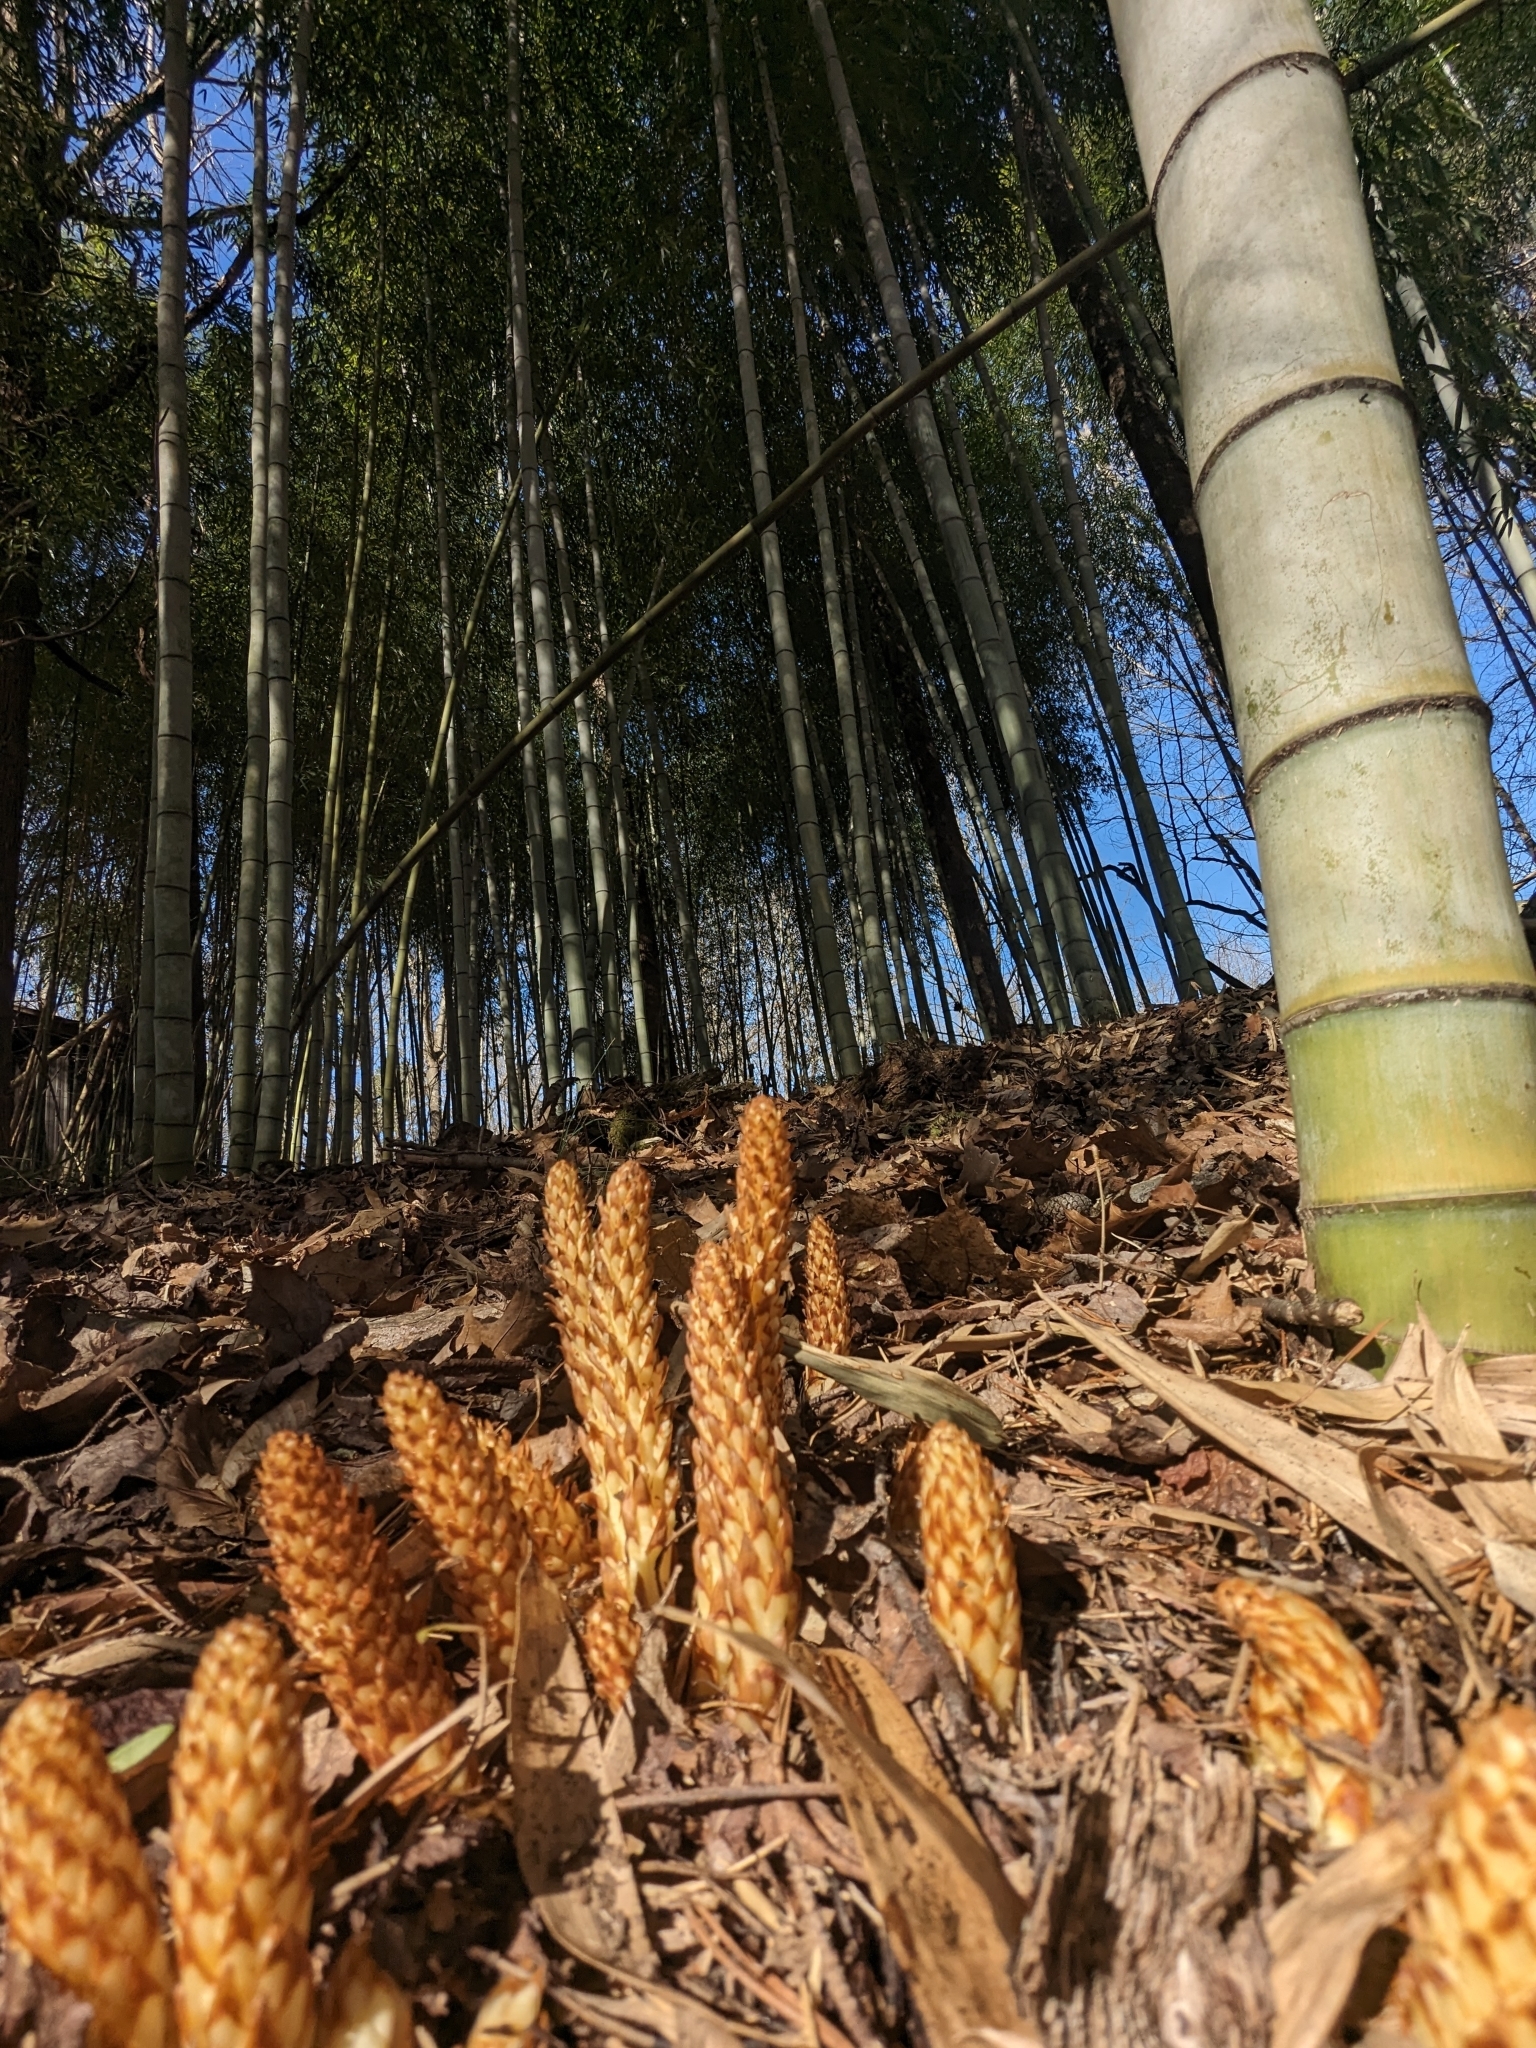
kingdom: Plantae
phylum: Tracheophyta
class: Magnoliopsida
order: Lamiales
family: Orobanchaceae
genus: Conopholis
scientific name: Conopholis americana
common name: American cancer-root
